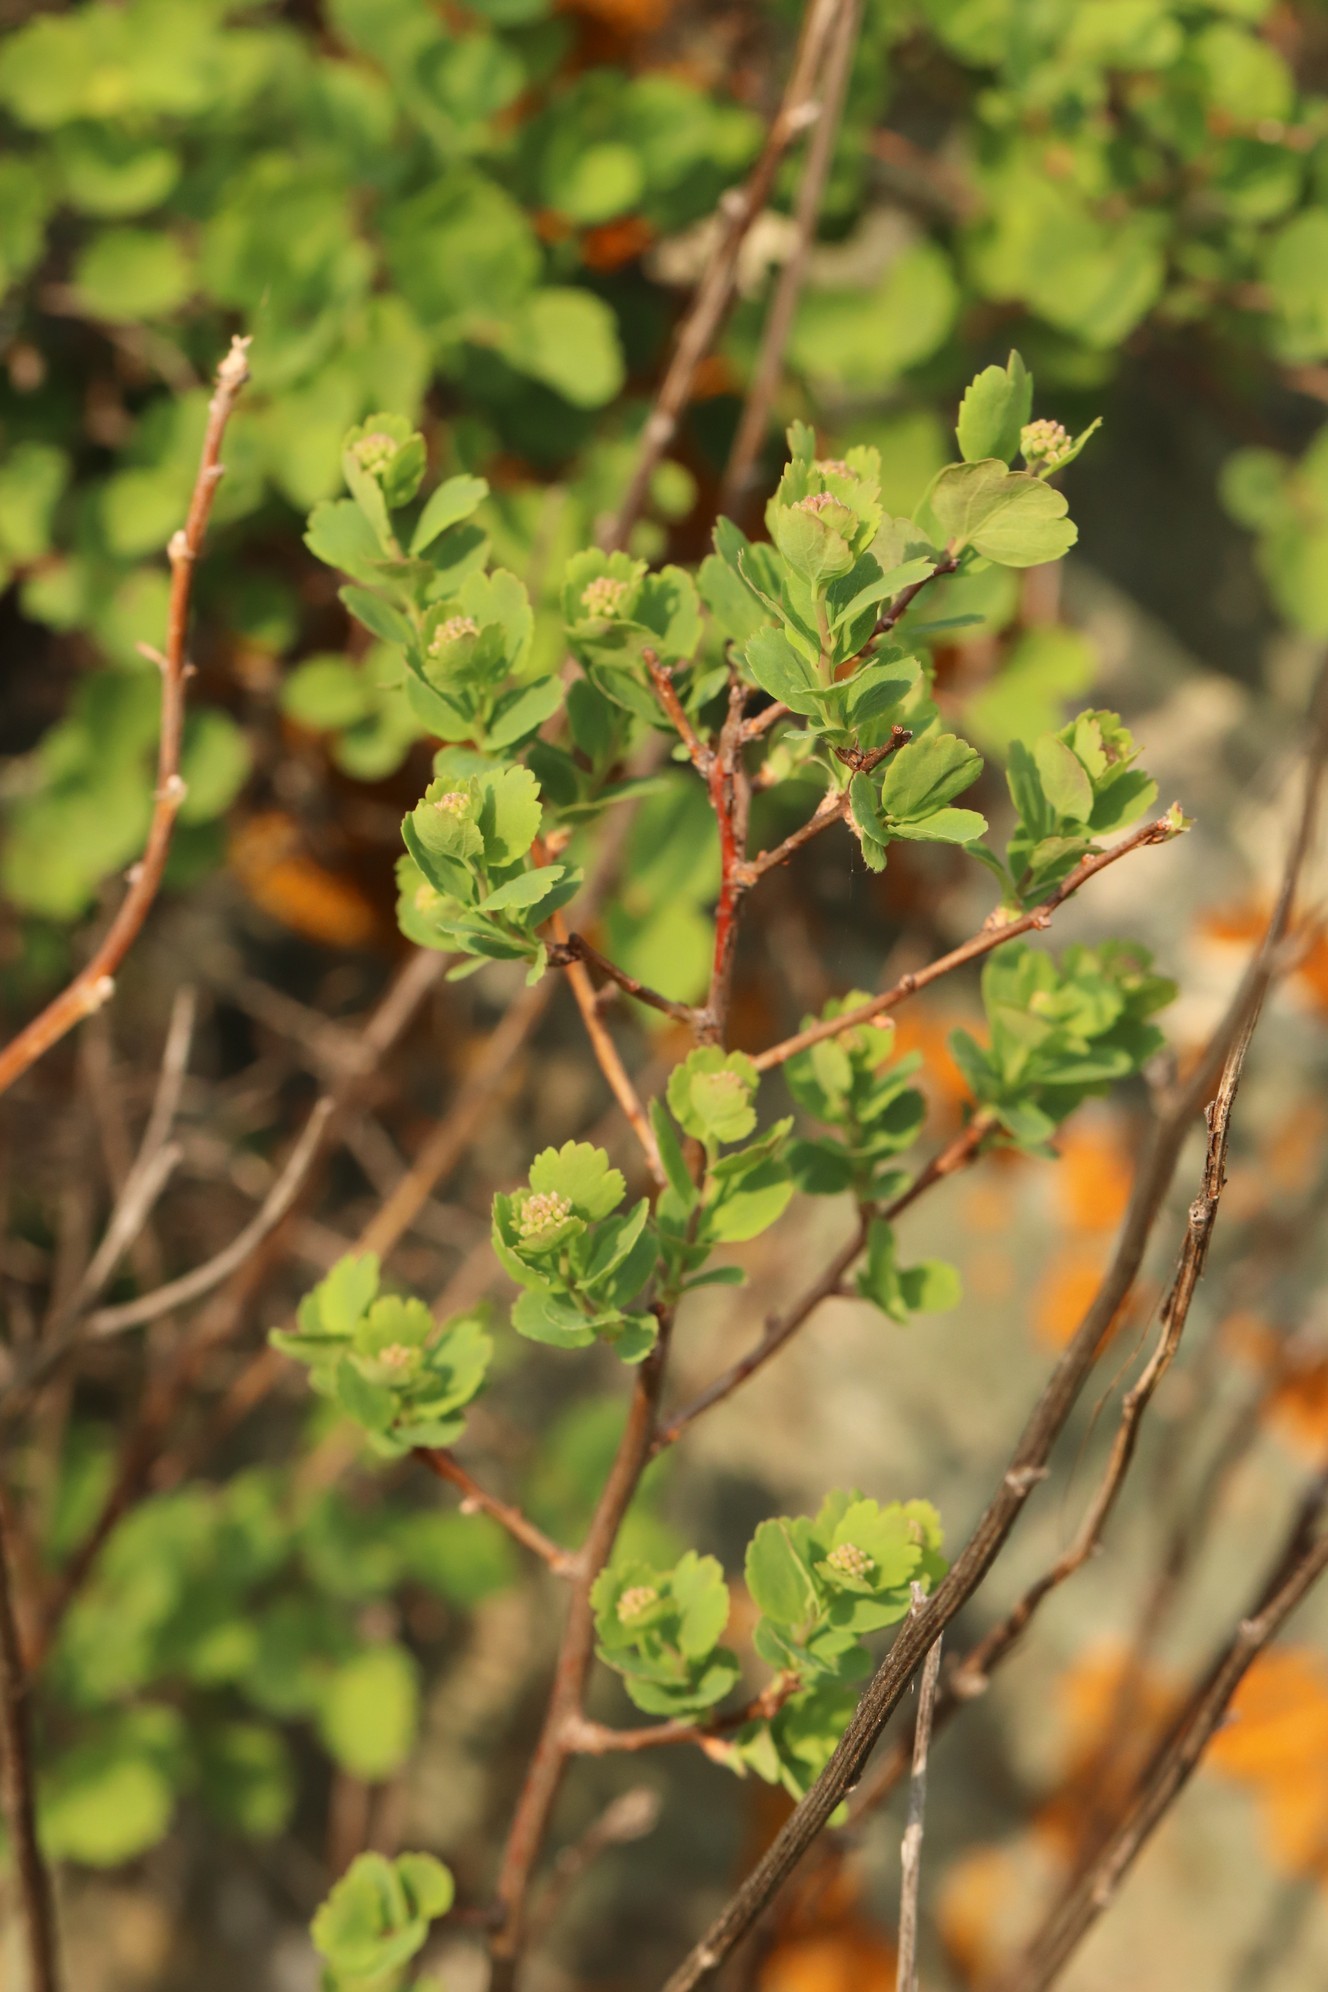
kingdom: Plantae
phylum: Tracheophyta
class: Magnoliopsida
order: Rosales
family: Rosaceae
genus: Spiraea
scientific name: Spiraea trilobata
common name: Asian meadowsweet
